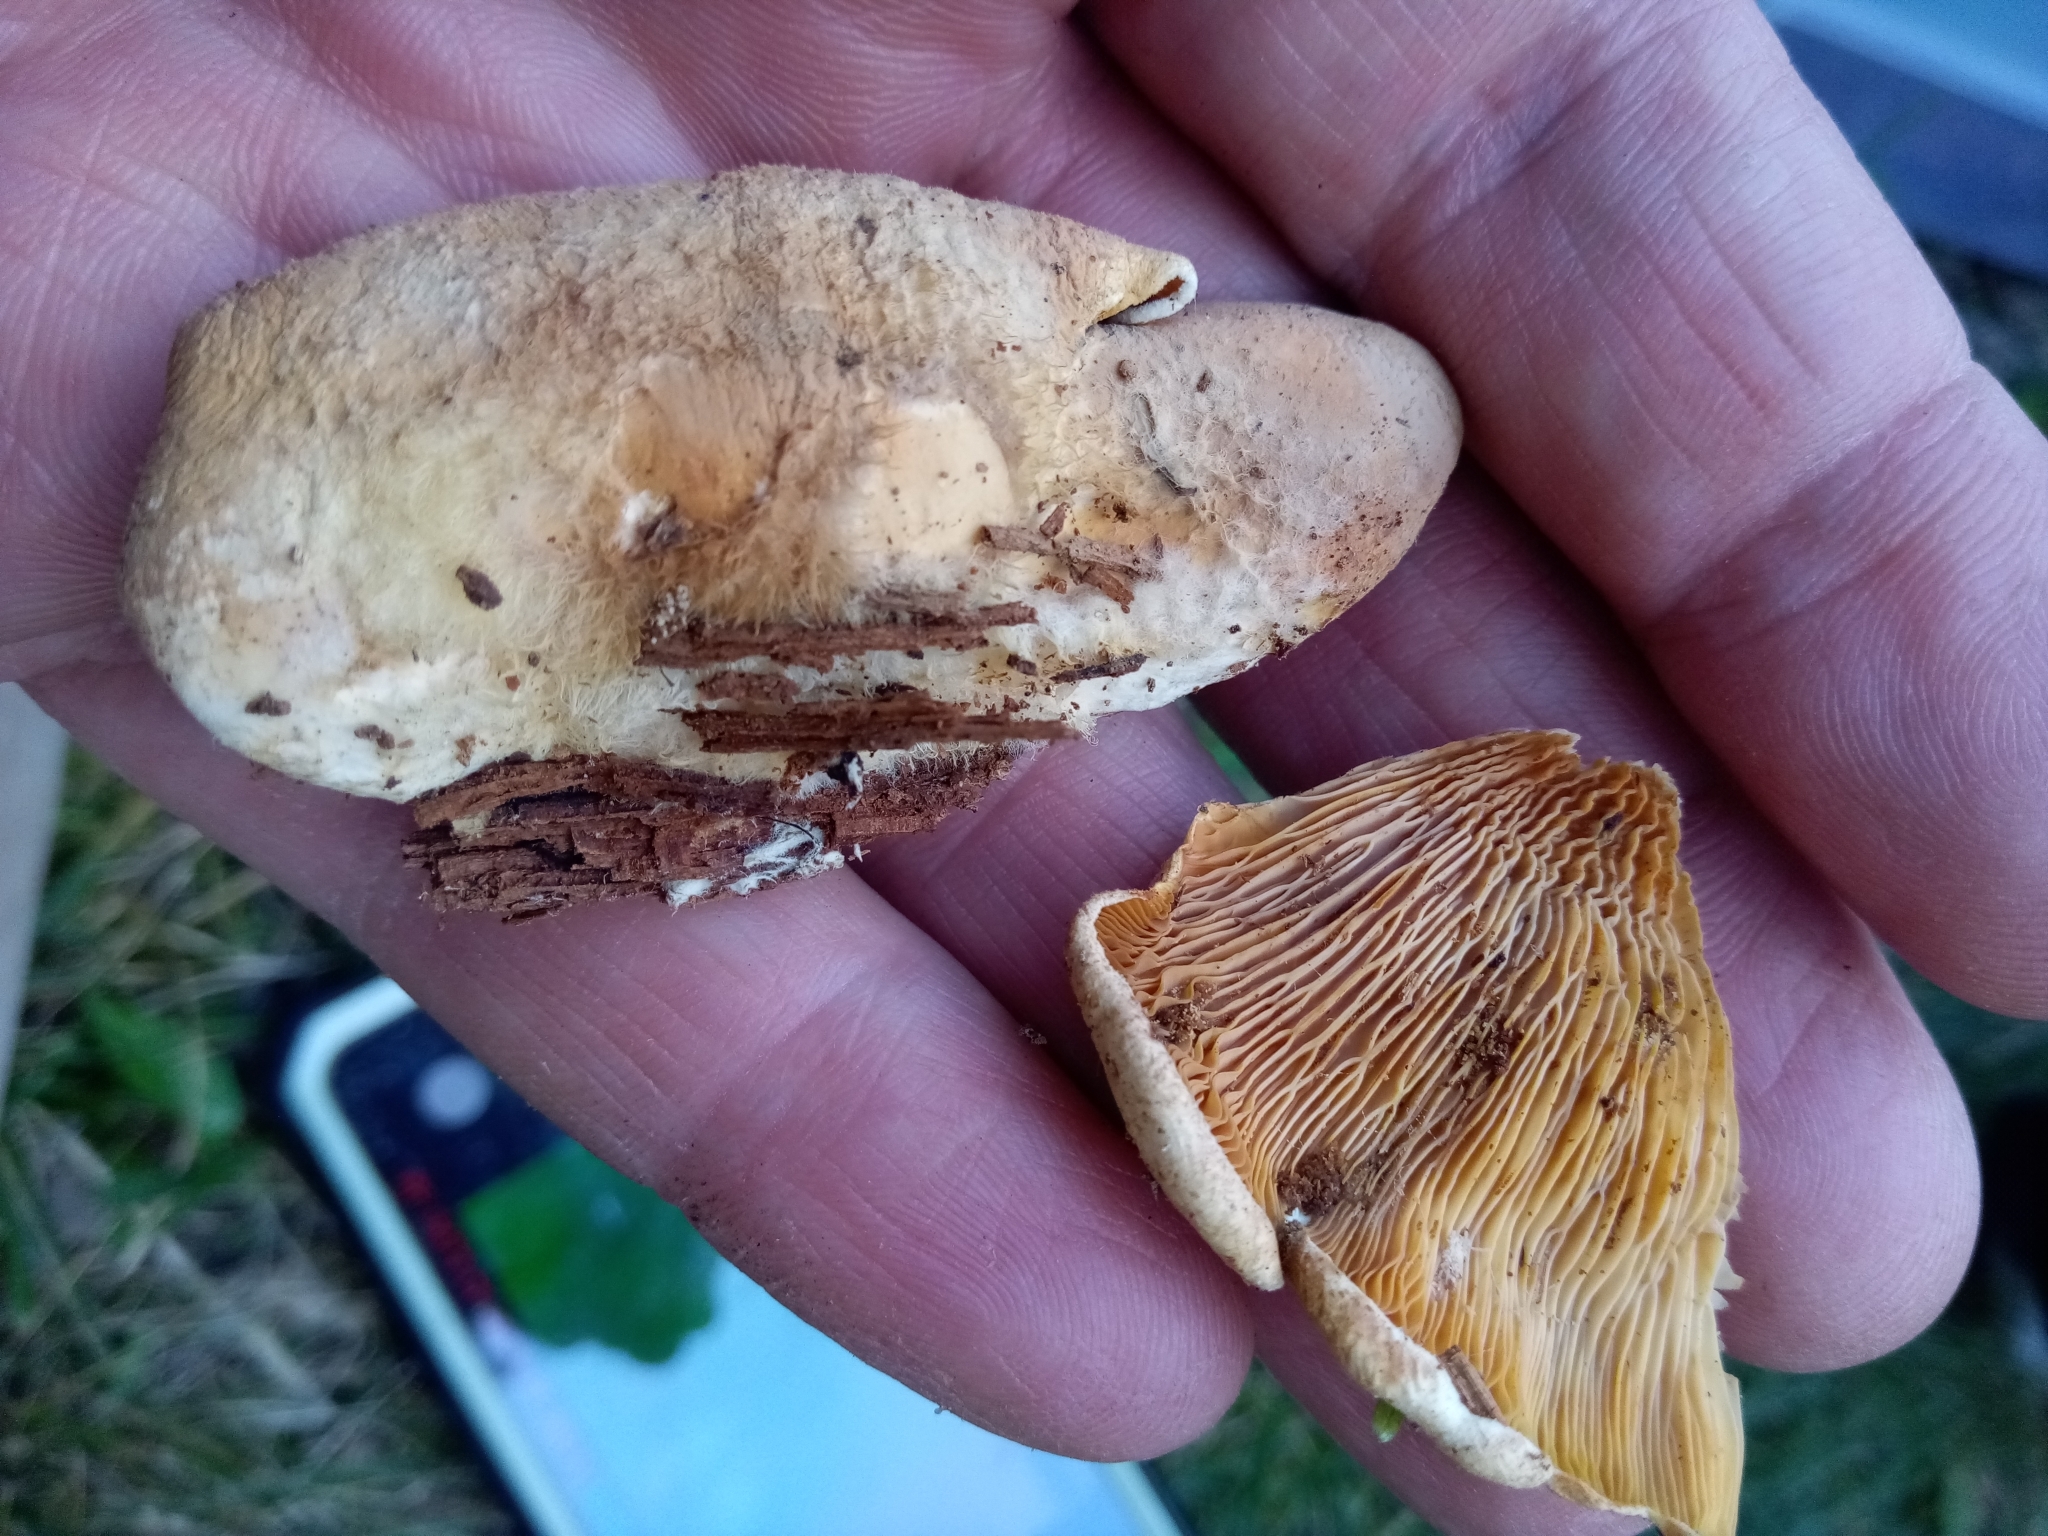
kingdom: Fungi
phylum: Basidiomycota
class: Agaricomycetes
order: Agaricales
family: Phyllotopsidaceae
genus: Phyllotopsis
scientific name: Phyllotopsis nidulans
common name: Orange mock oyster
